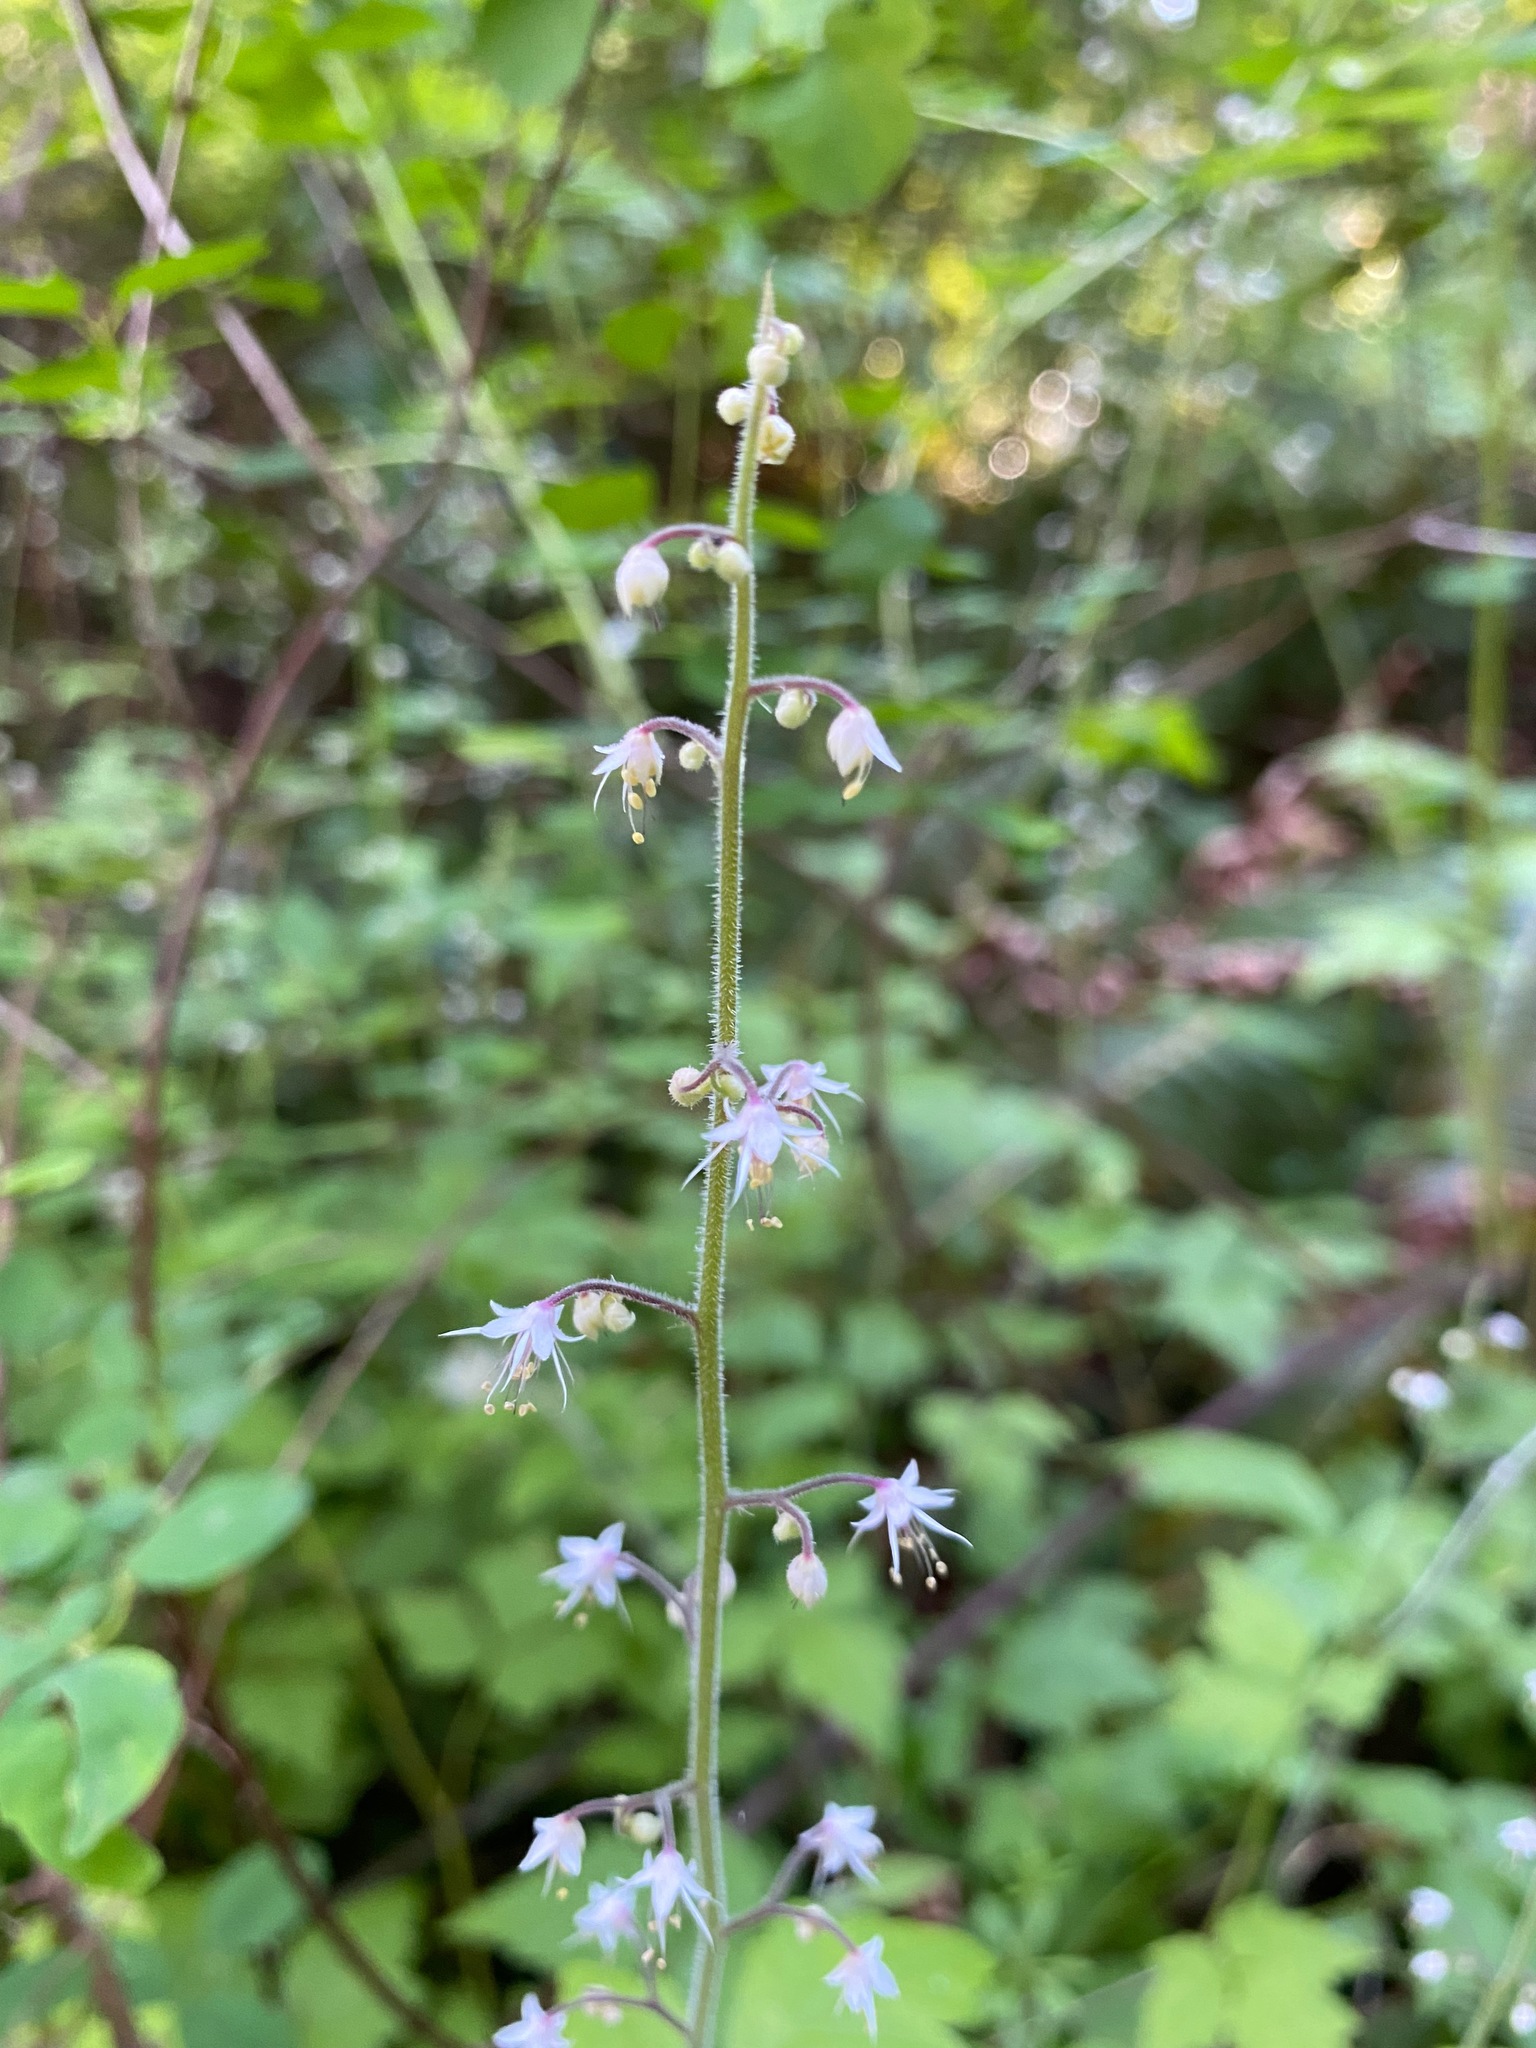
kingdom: Plantae
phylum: Tracheophyta
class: Magnoliopsida
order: Saxifragales
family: Saxifragaceae
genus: Tiarella
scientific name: Tiarella trifoliata
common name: Sugar-scoop
